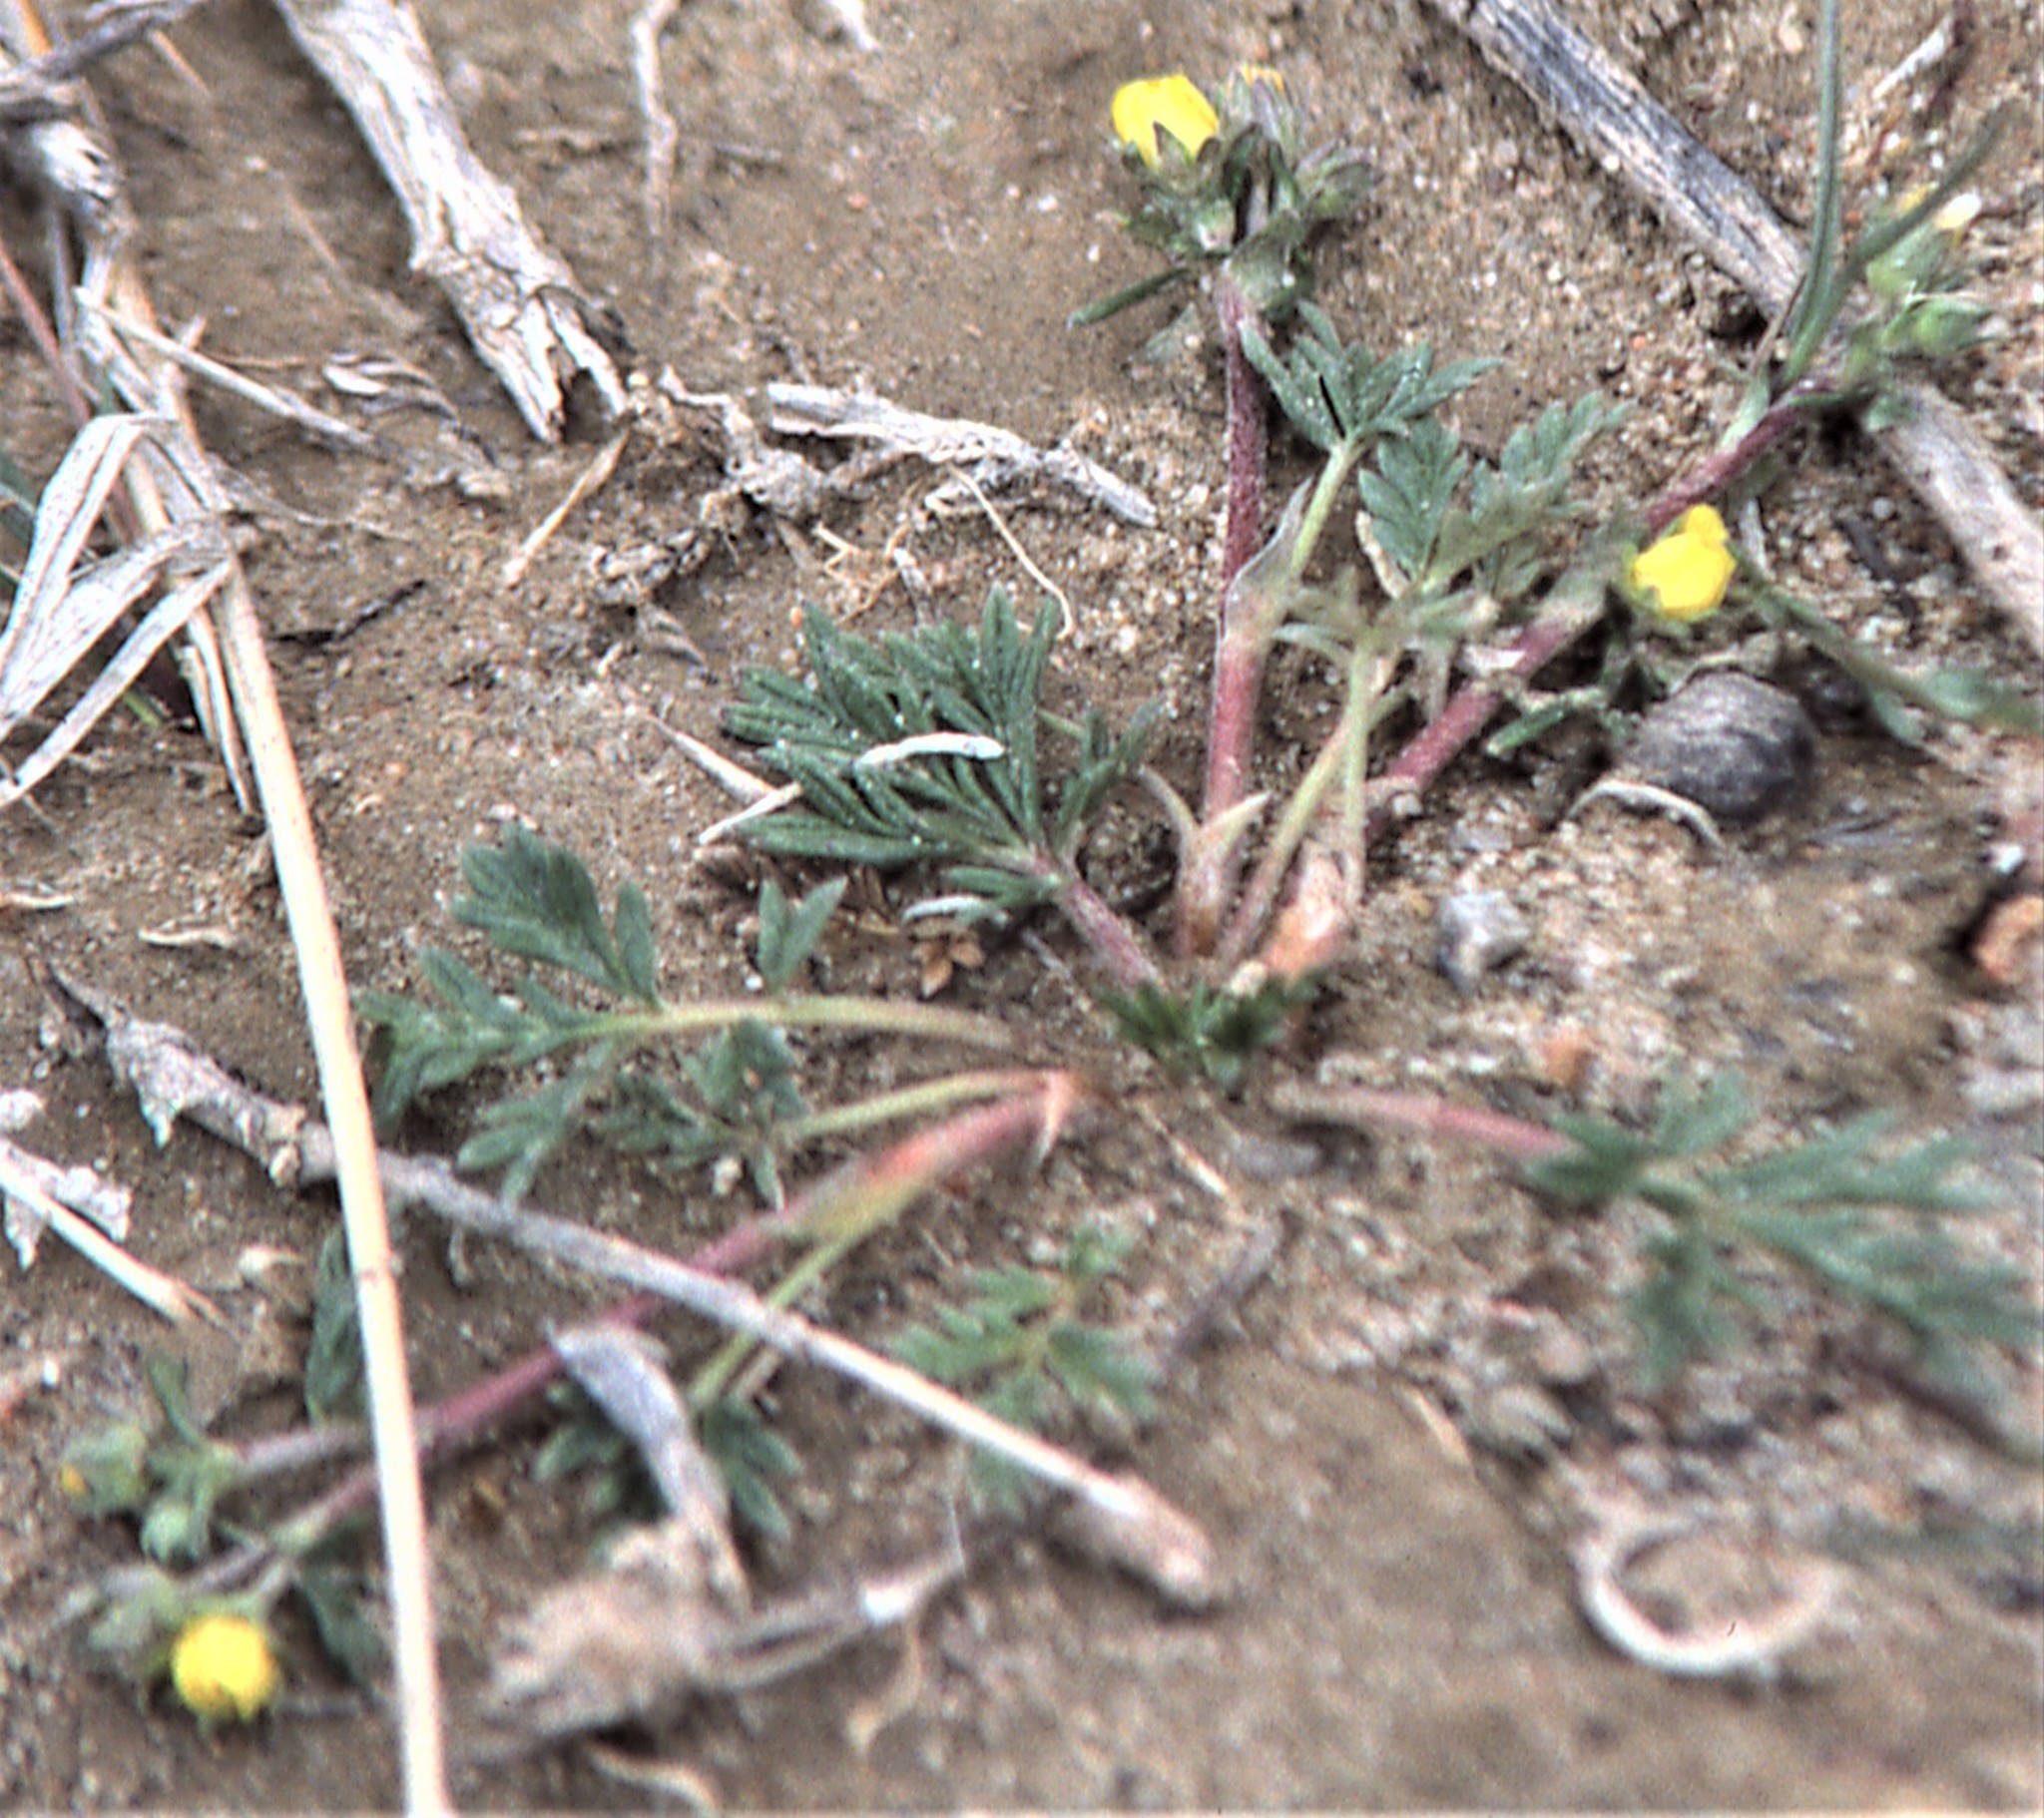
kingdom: Plantae
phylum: Tracheophyta
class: Magnoliopsida
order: Rosales
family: Rosaceae
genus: Potentilla
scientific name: Potentilla pamirica
